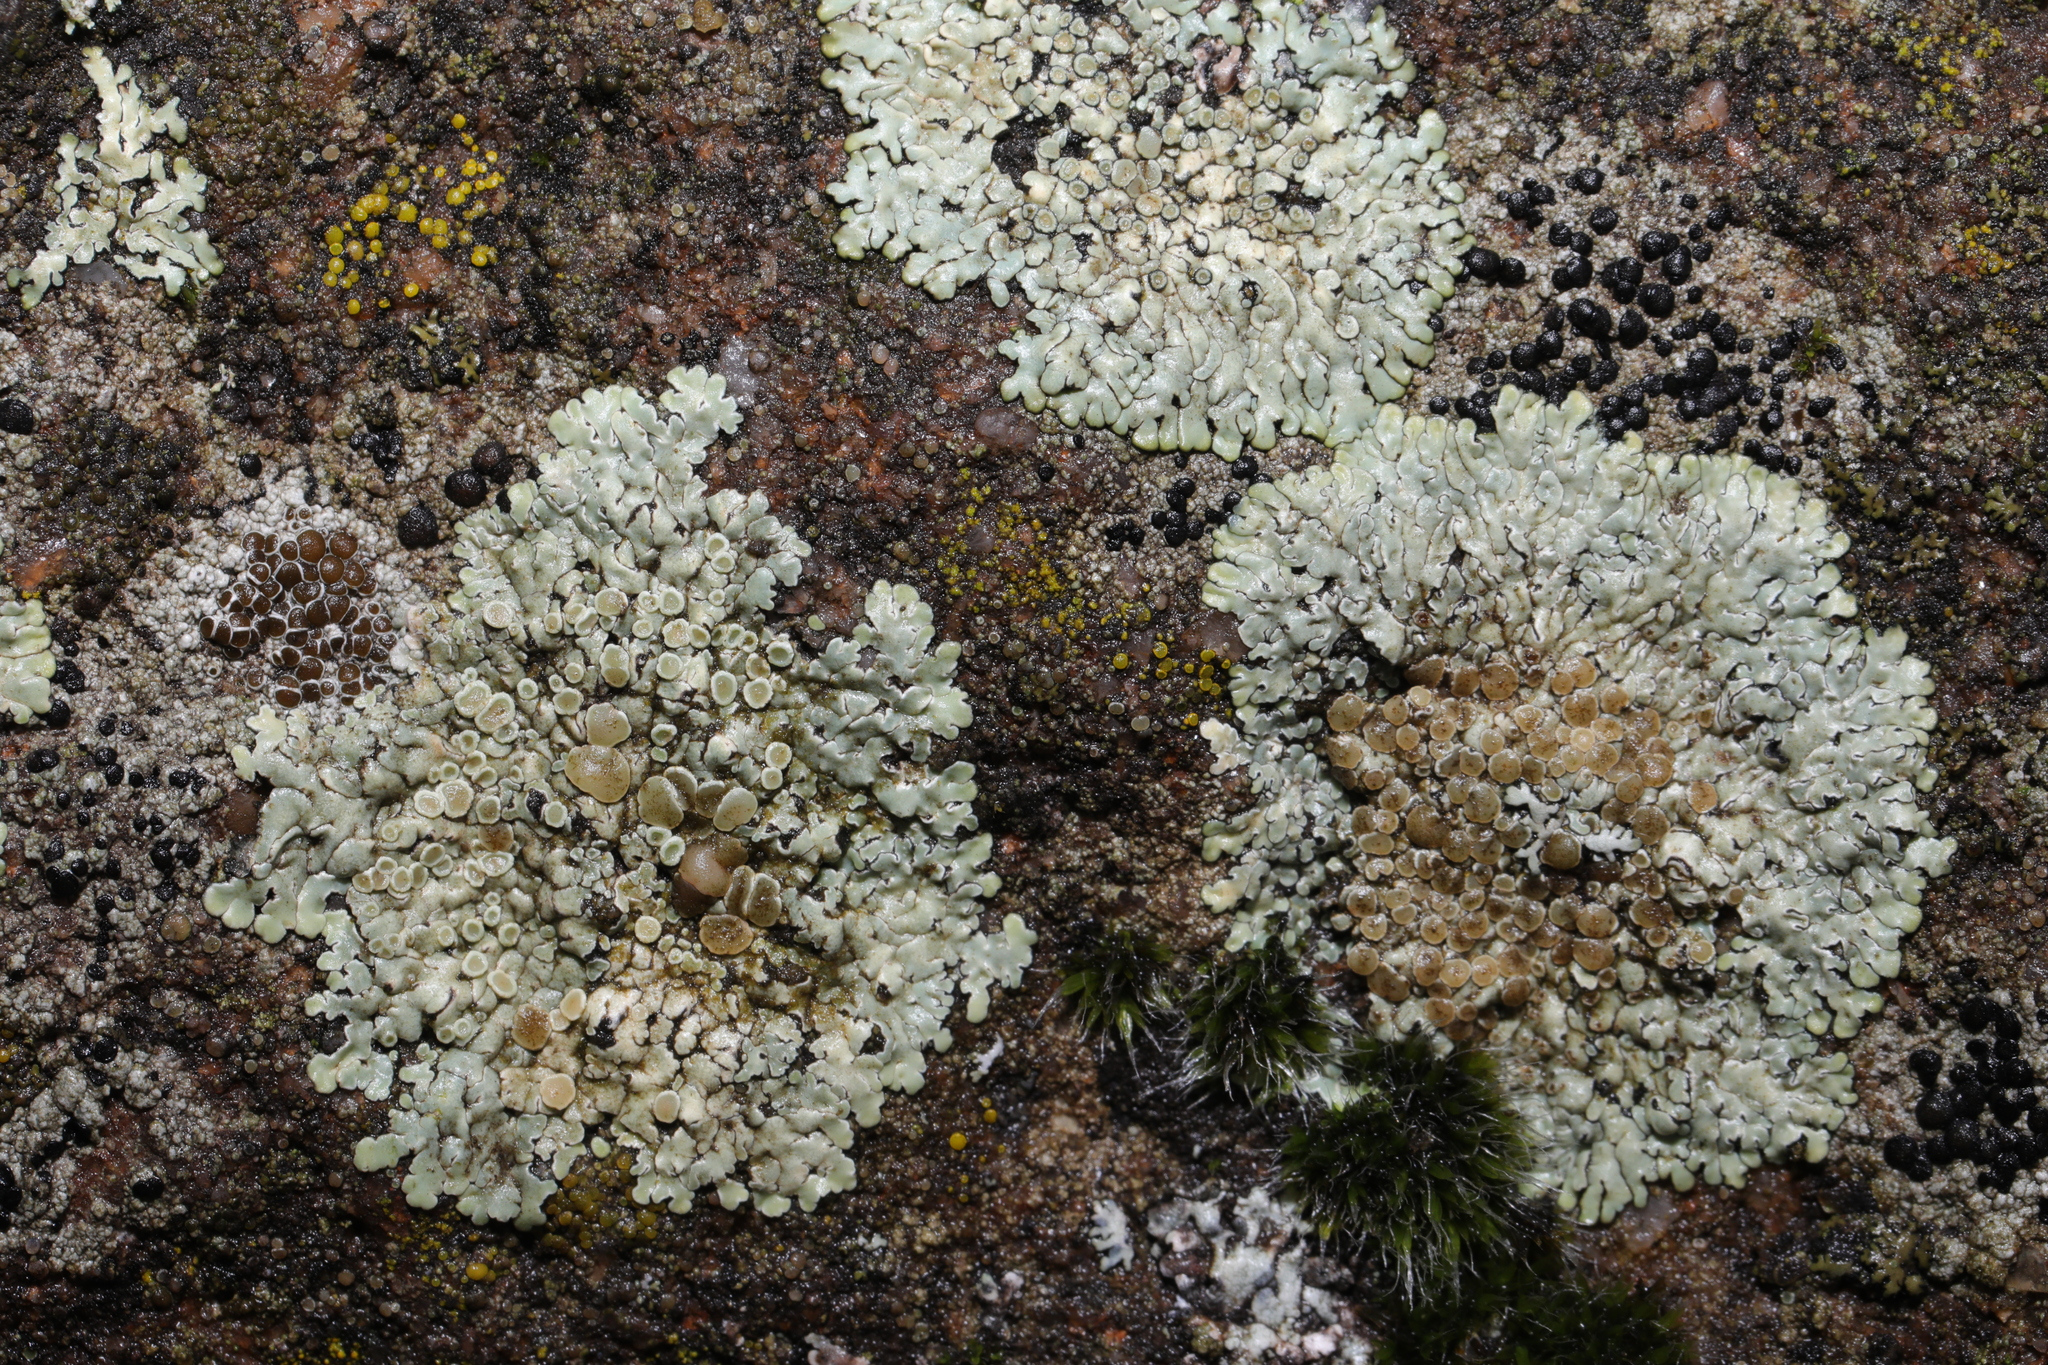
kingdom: Fungi
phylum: Ascomycota
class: Lecanoromycetes
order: Lecanorales
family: Lecanoraceae
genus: Protoparmeliopsis
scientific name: Protoparmeliopsis muralis
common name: Stonewall rim lichen
